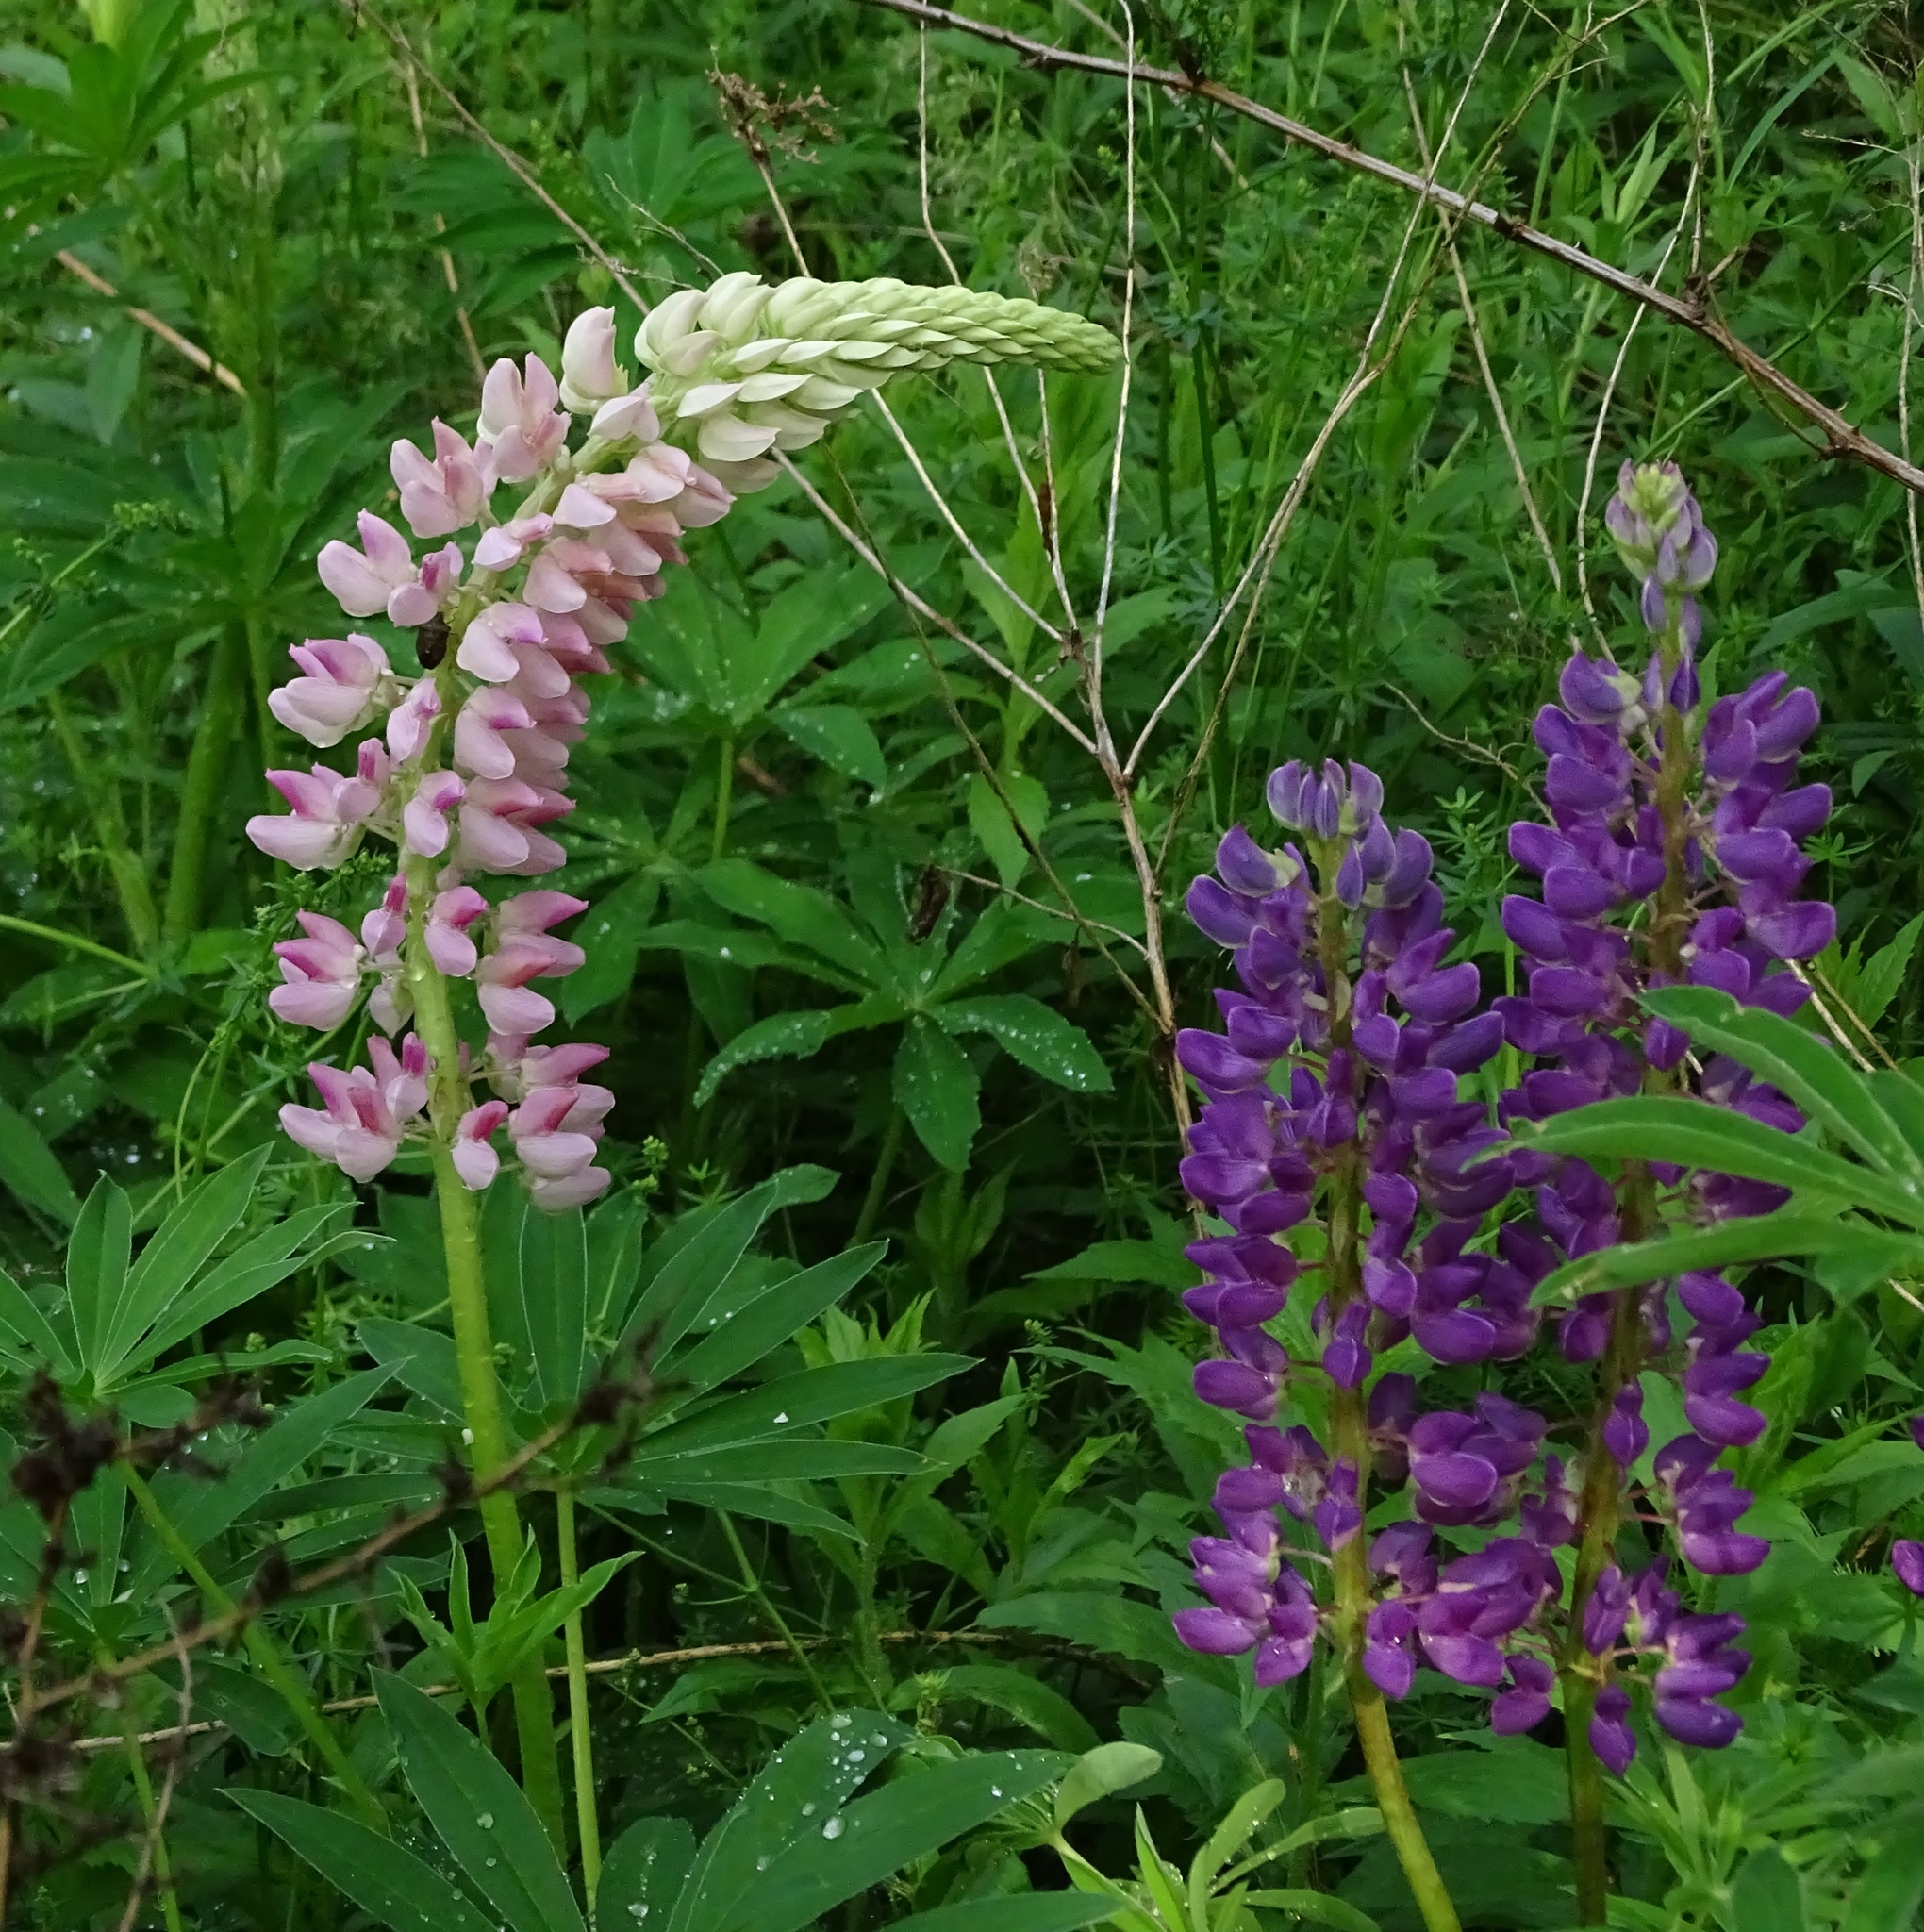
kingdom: Plantae
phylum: Tracheophyta
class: Magnoliopsida
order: Fabales
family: Fabaceae
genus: Lupinus
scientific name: Lupinus polyphyllus
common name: Garden lupin
